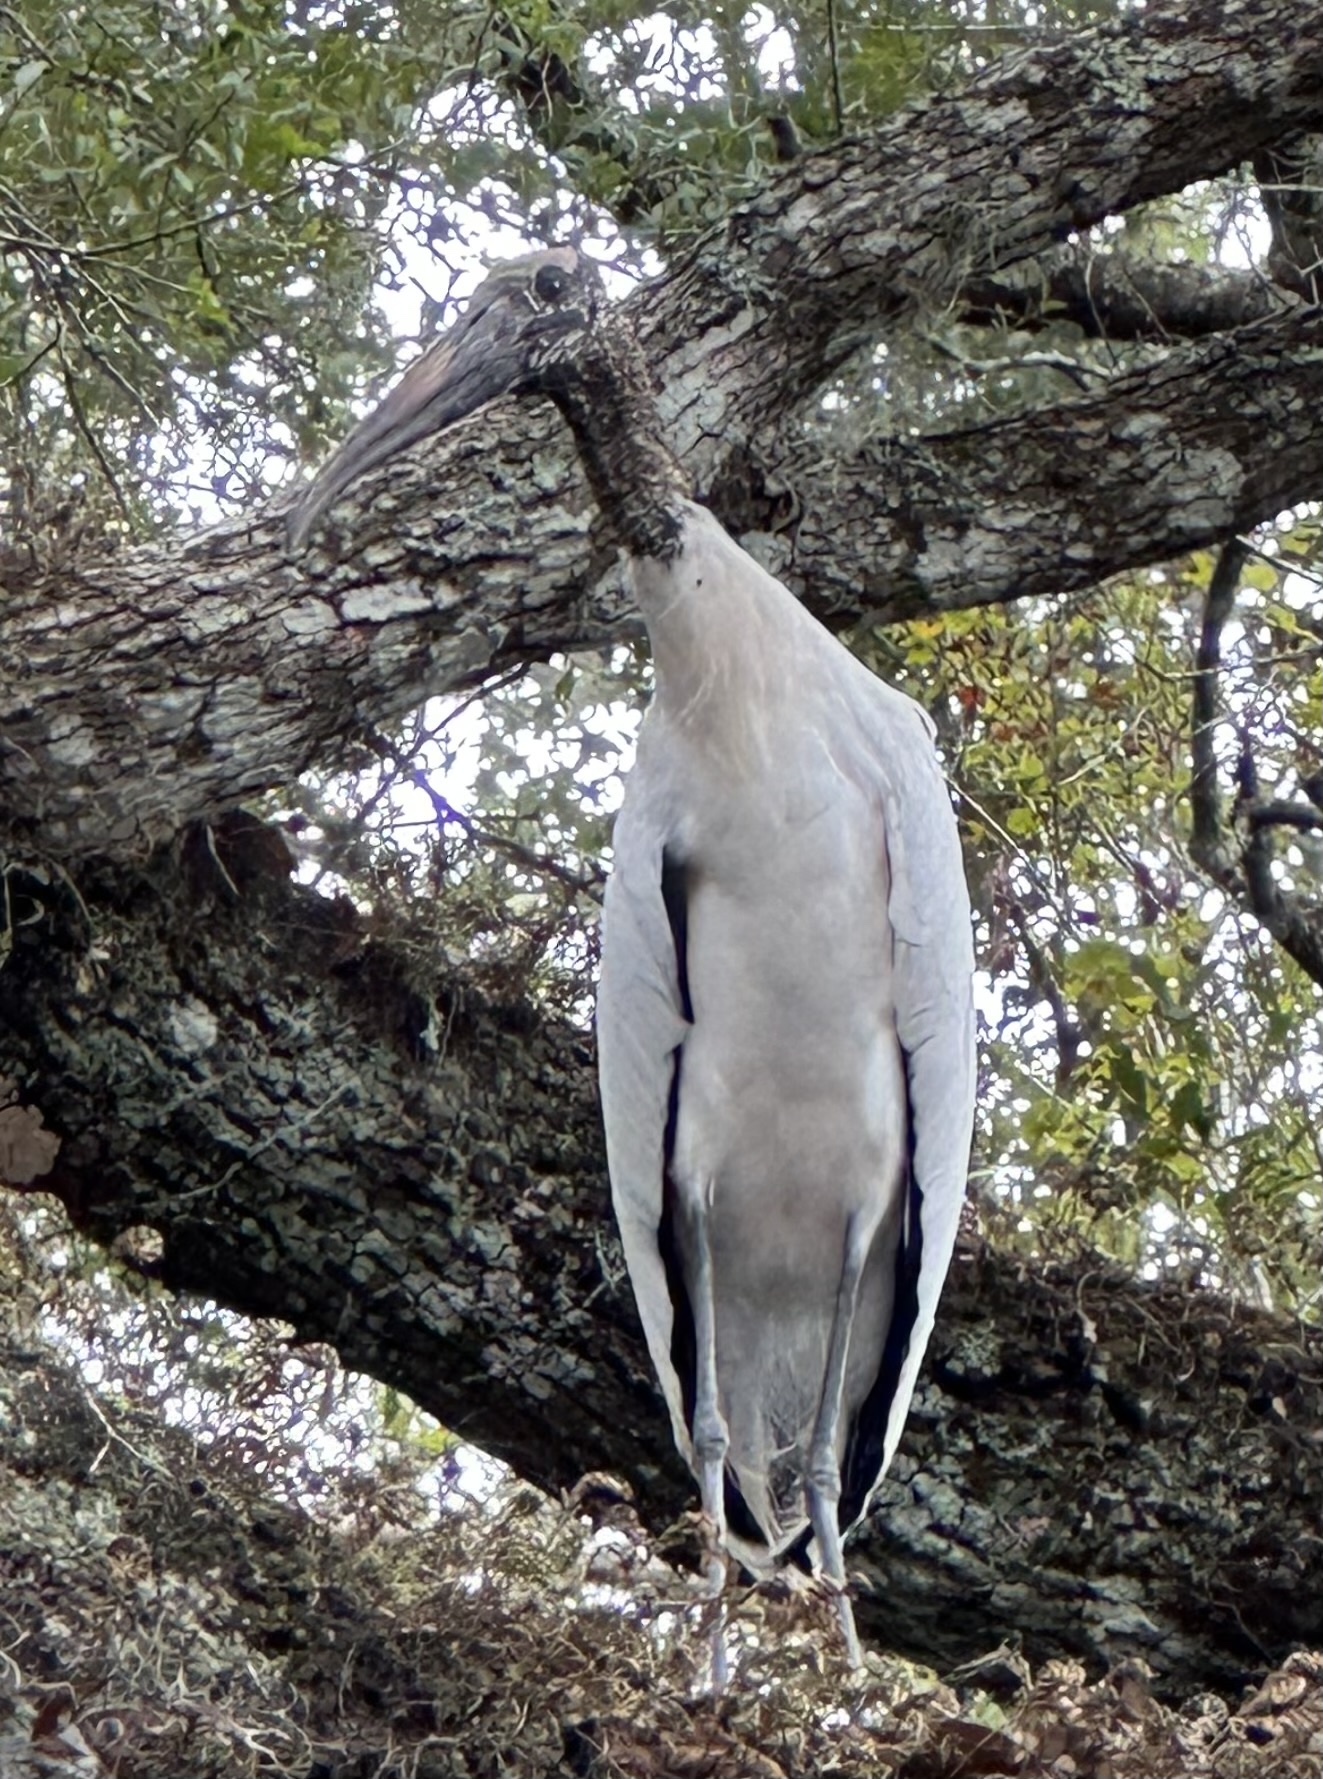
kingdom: Animalia
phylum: Chordata
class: Aves
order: Ciconiiformes
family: Ciconiidae
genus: Mycteria
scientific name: Mycteria americana
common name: Wood stork
